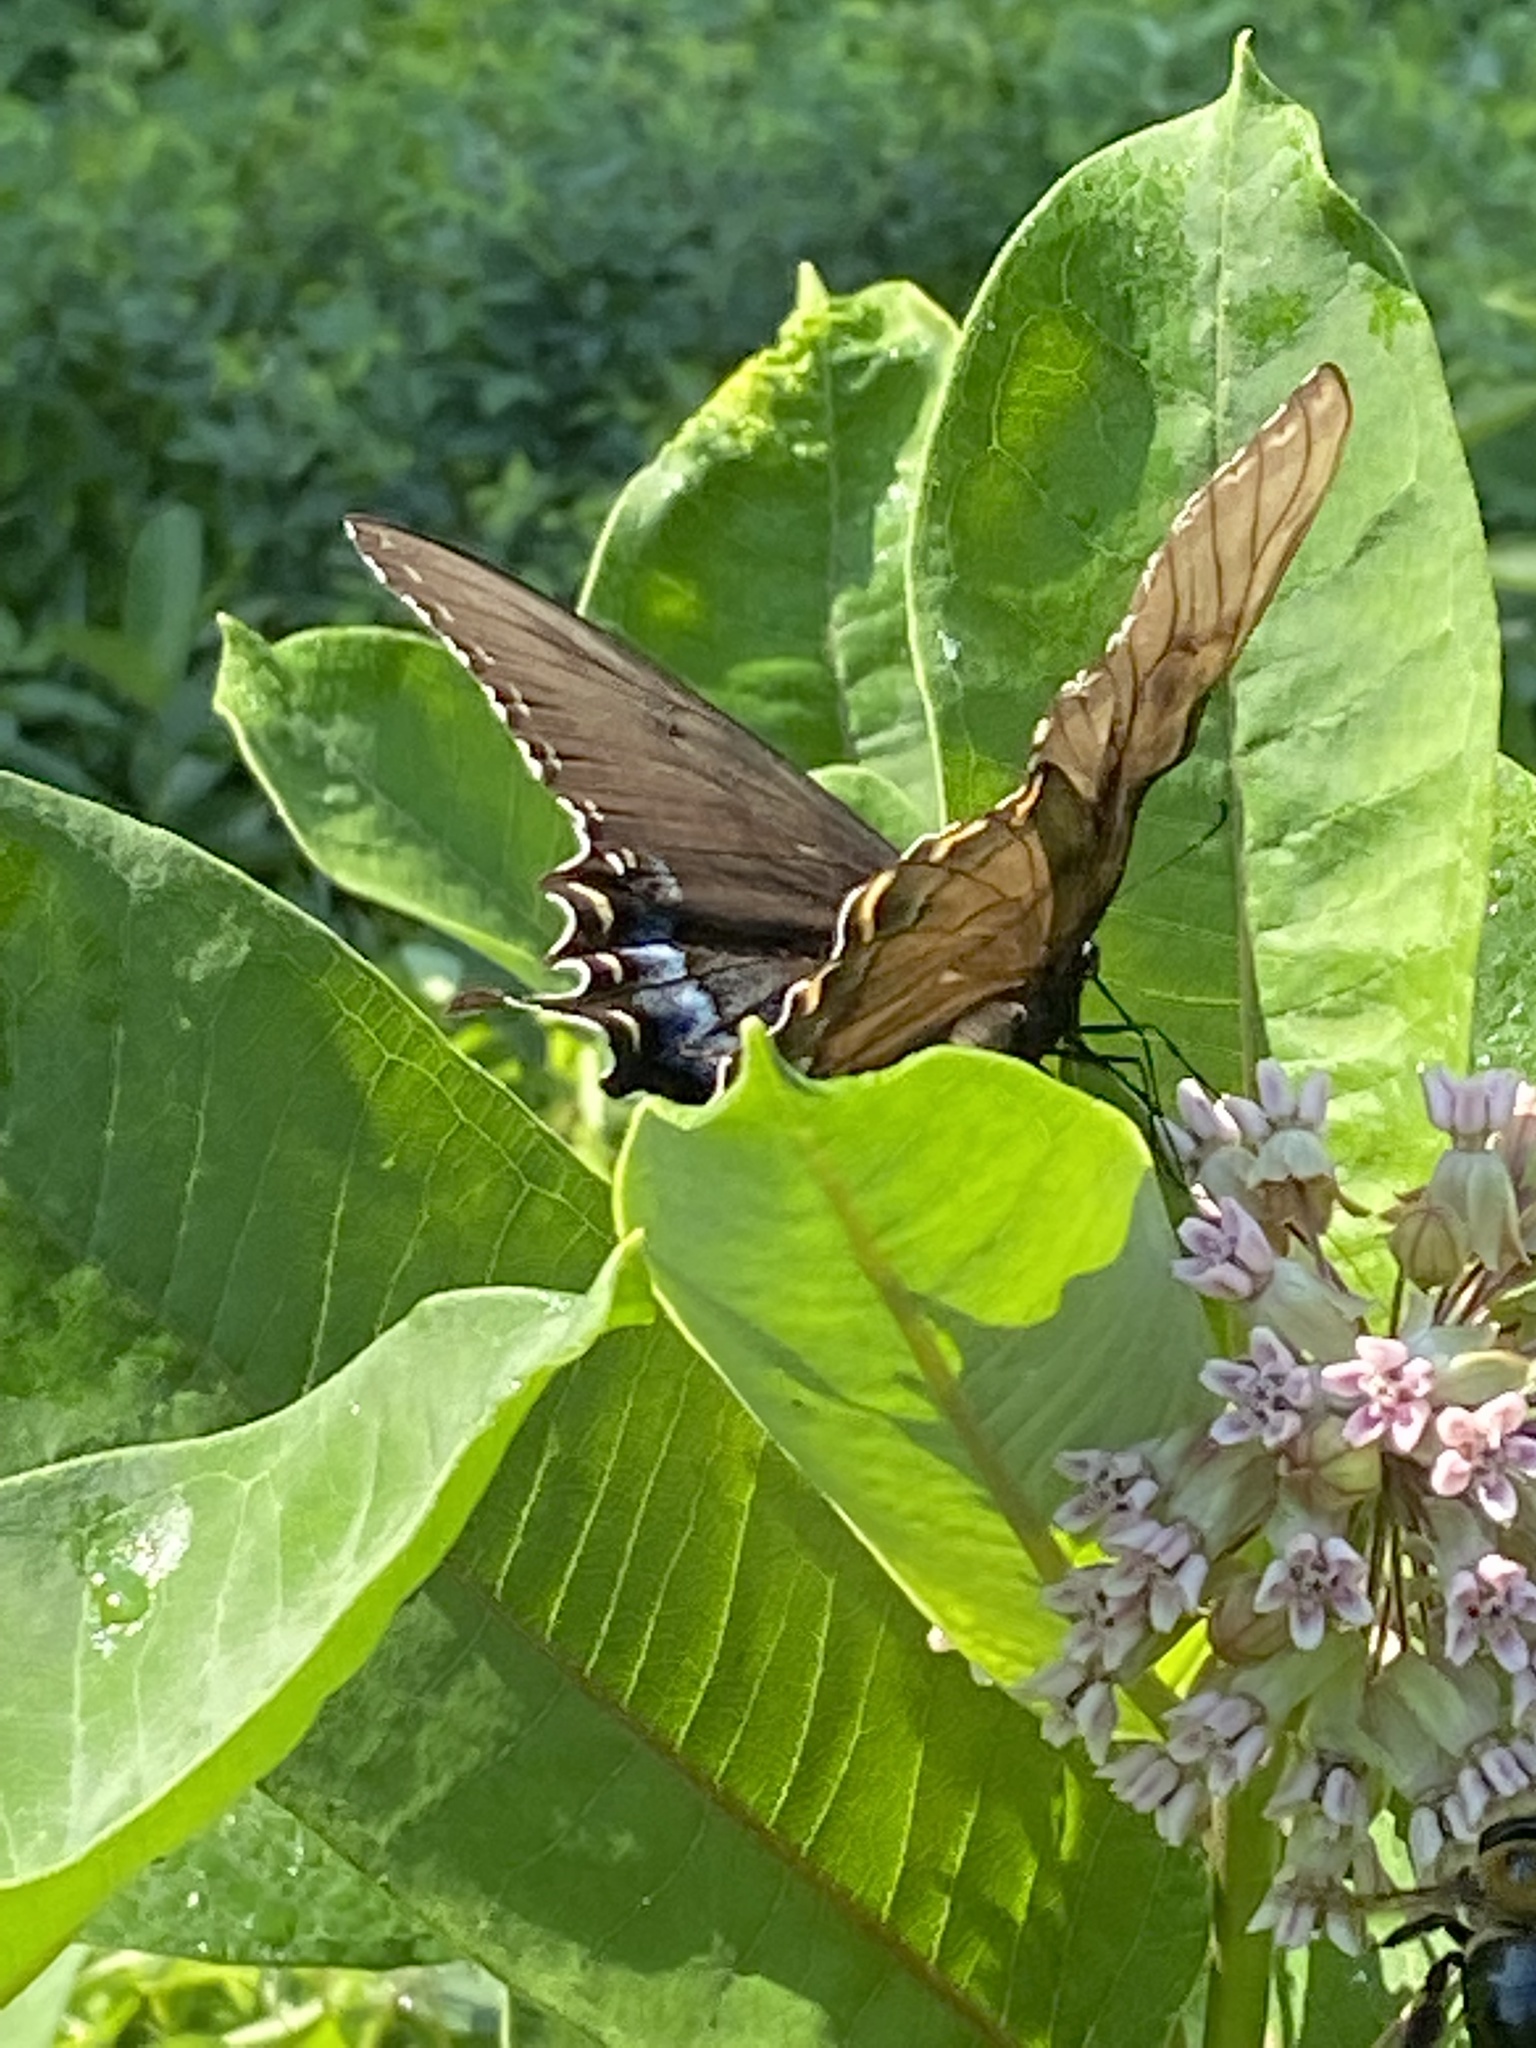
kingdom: Animalia
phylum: Arthropoda
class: Insecta
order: Lepidoptera
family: Papilionidae
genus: Papilio
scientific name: Papilio glaucus
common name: Tiger swallowtail
